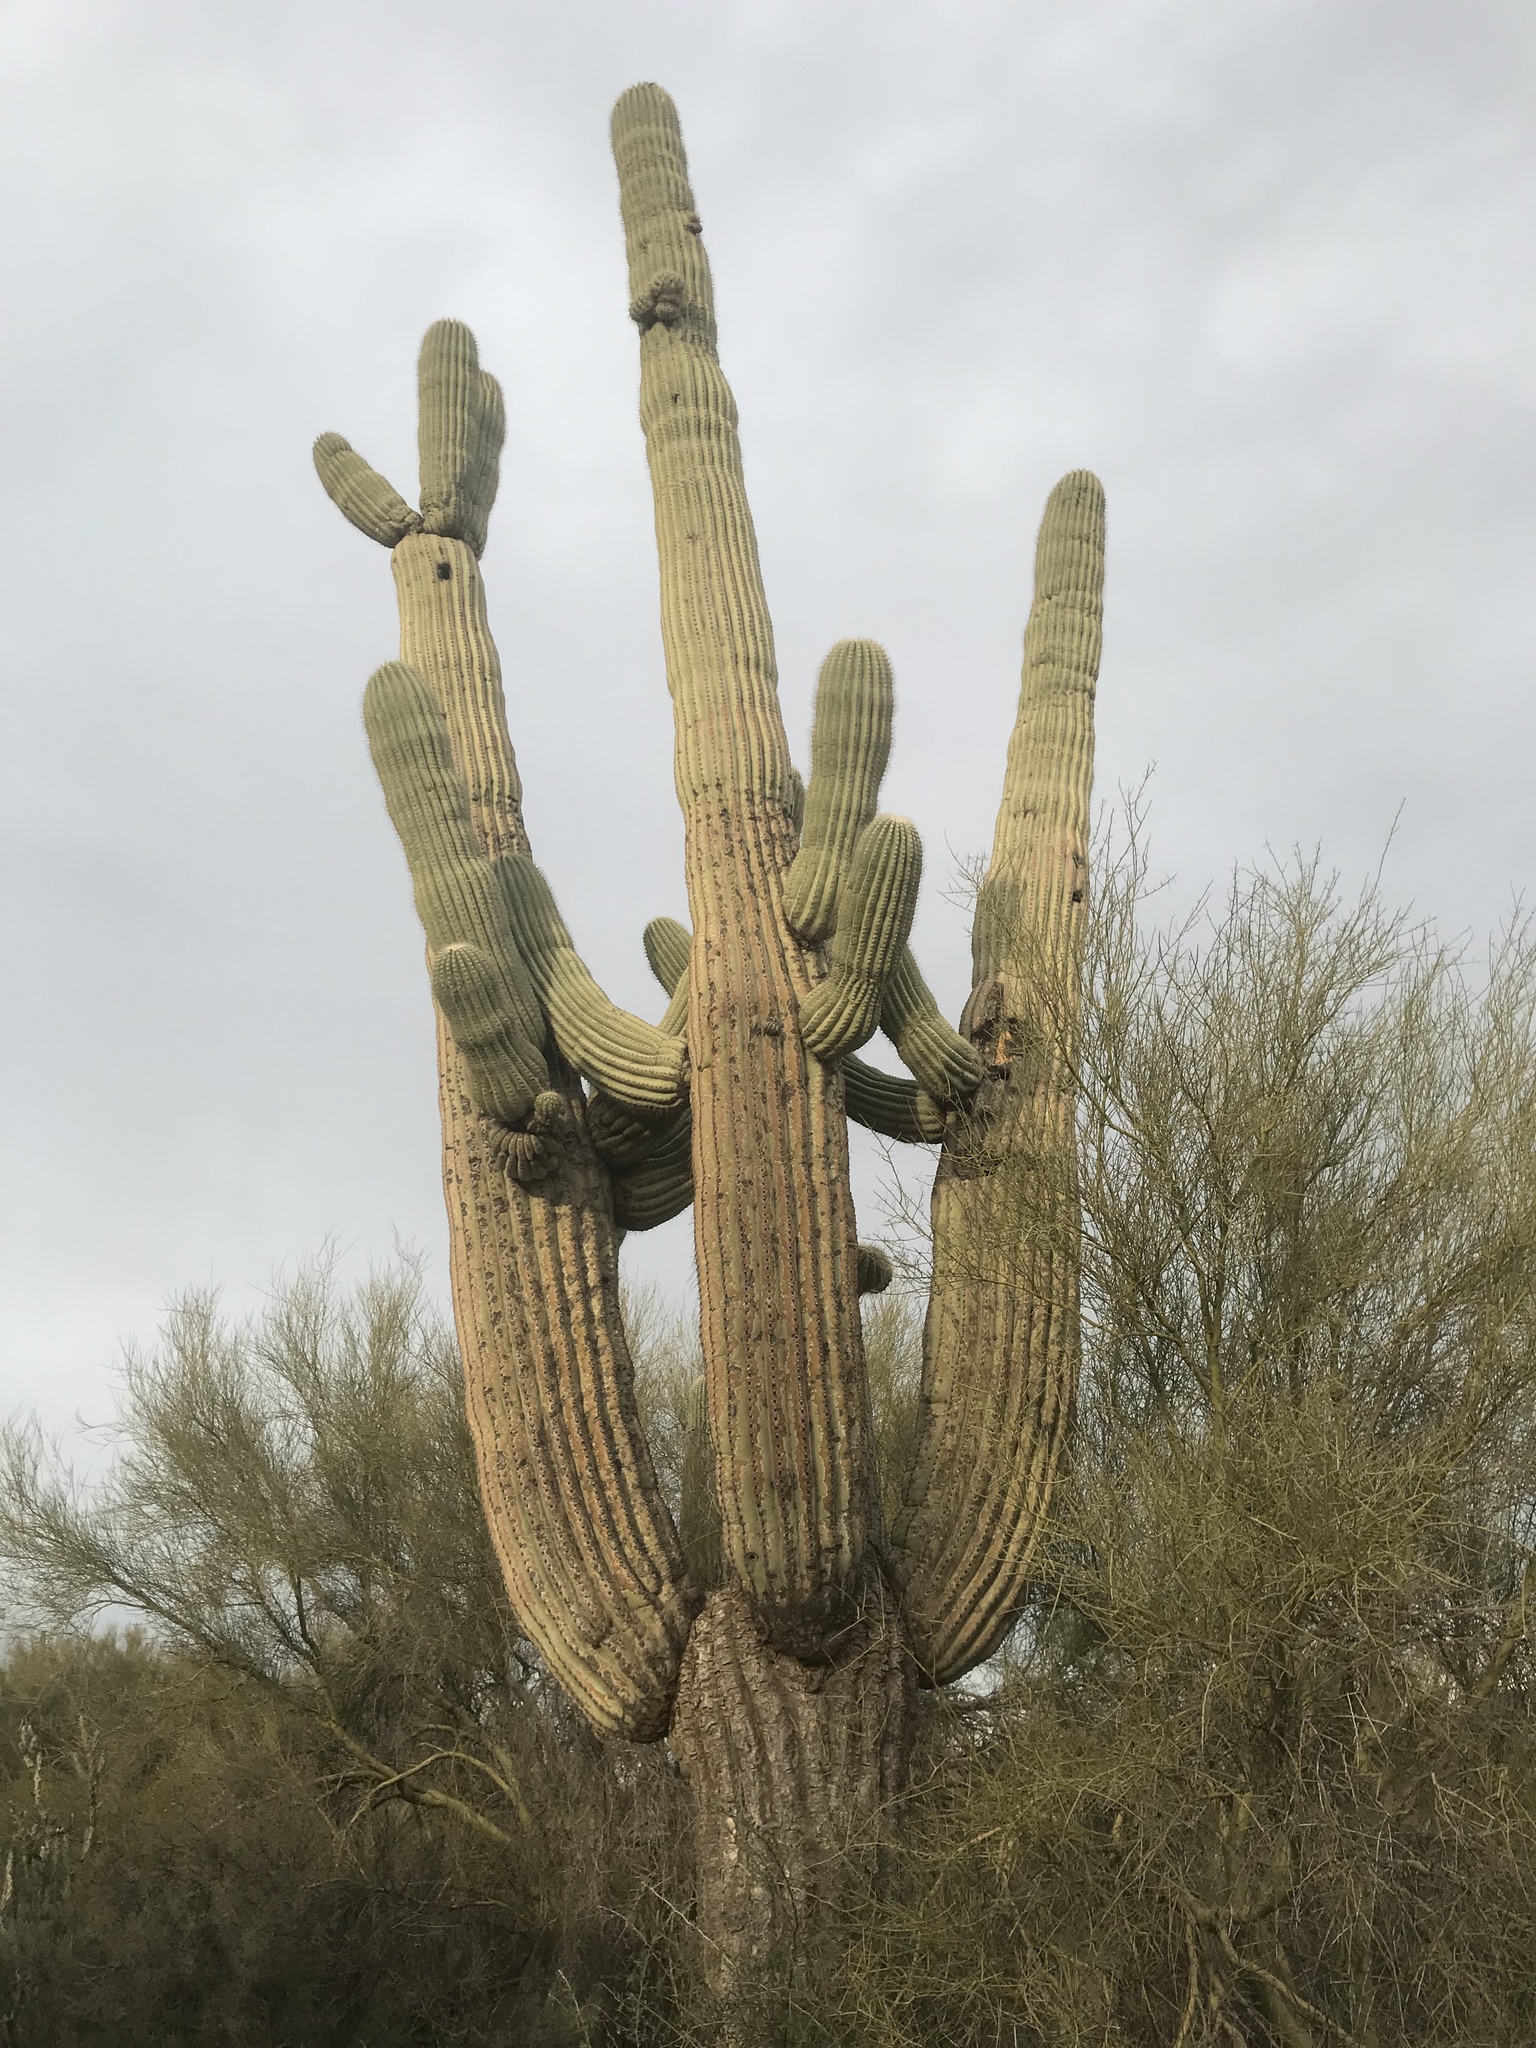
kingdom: Plantae
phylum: Tracheophyta
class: Magnoliopsida
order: Caryophyllales
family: Cactaceae
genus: Carnegiea
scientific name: Carnegiea gigantea
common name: Saguaro
